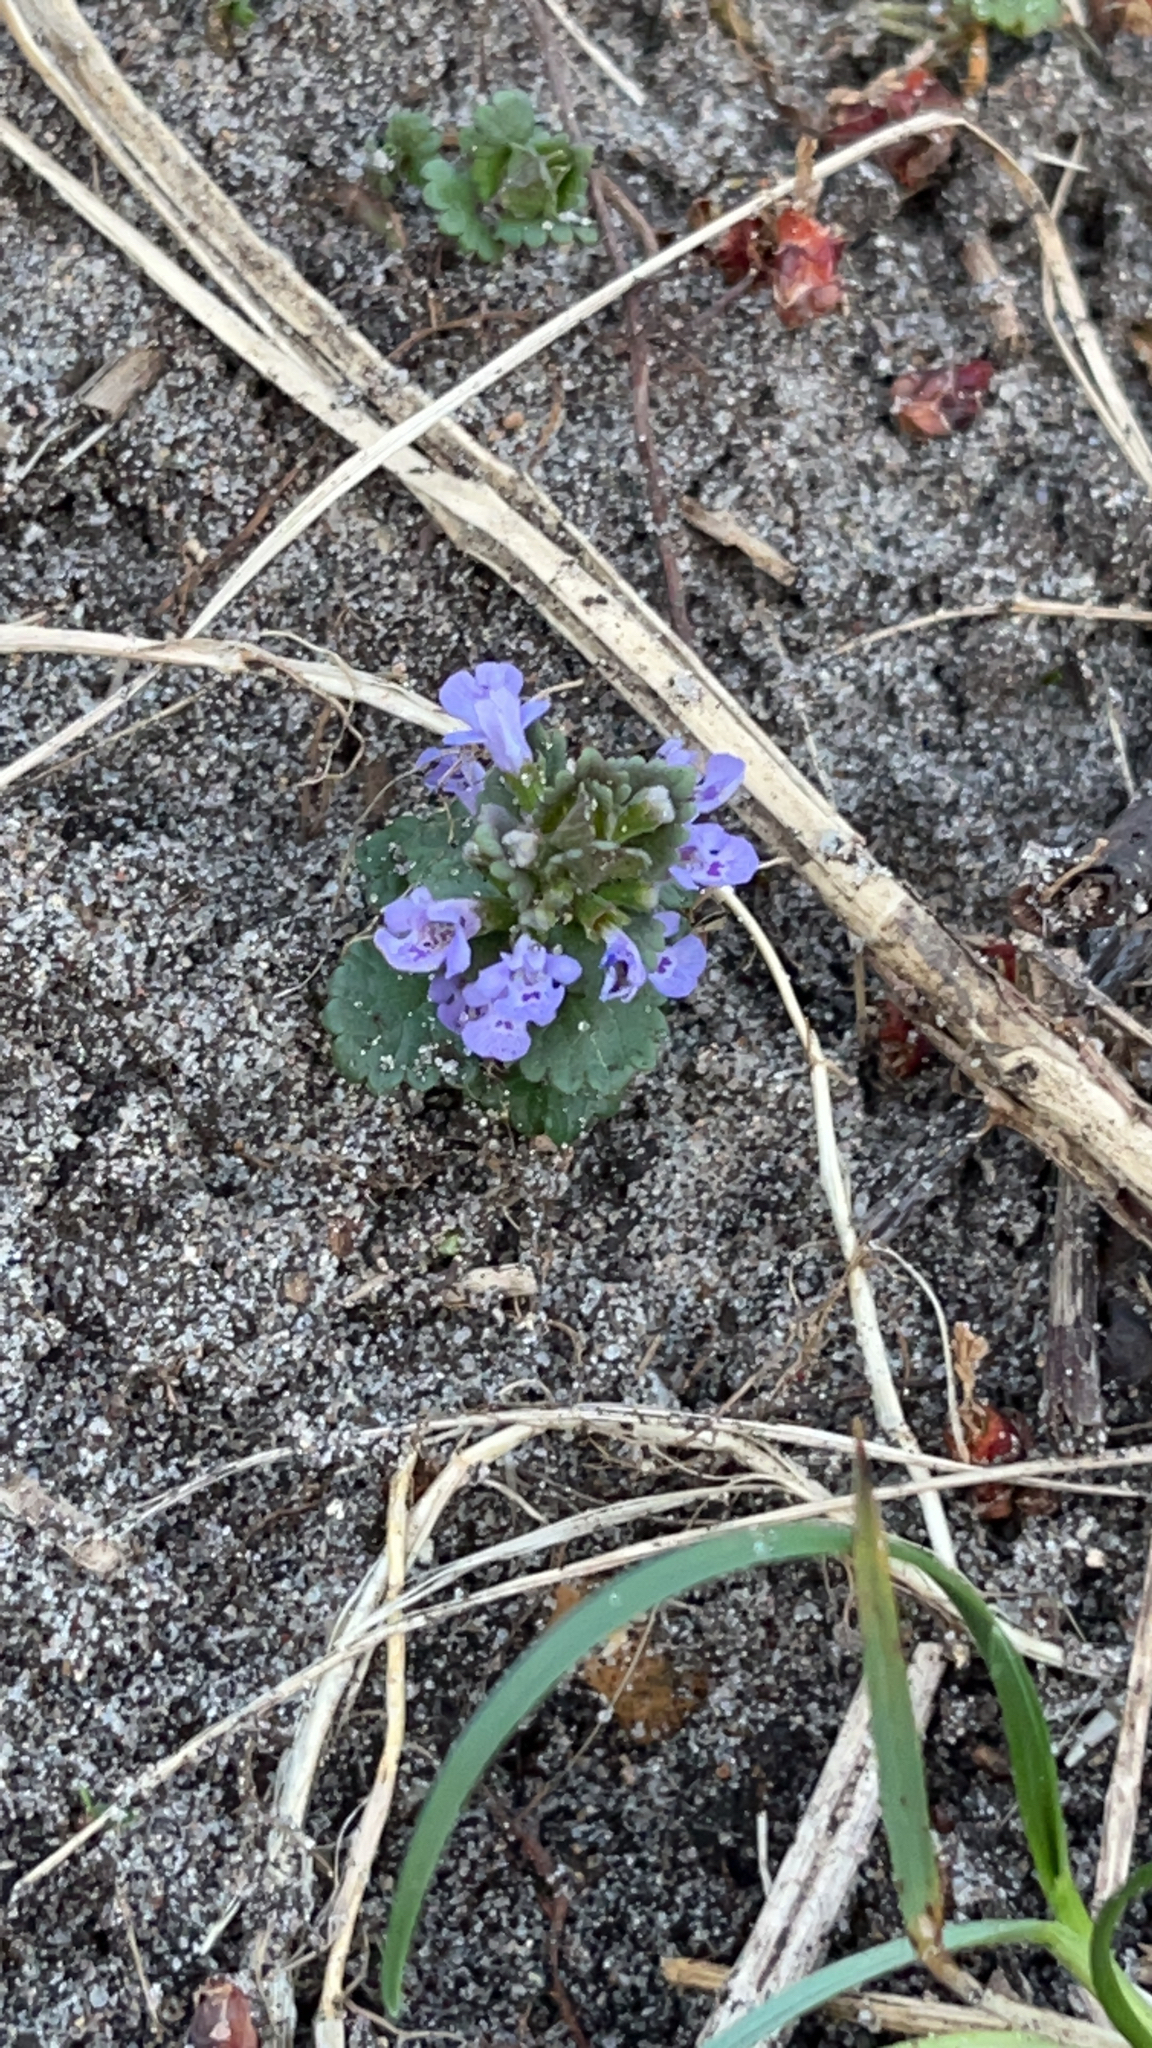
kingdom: Plantae
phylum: Tracheophyta
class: Magnoliopsida
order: Lamiales
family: Lamiaceae
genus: Glechoma
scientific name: Glechoma hederacea
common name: Ground ivy
